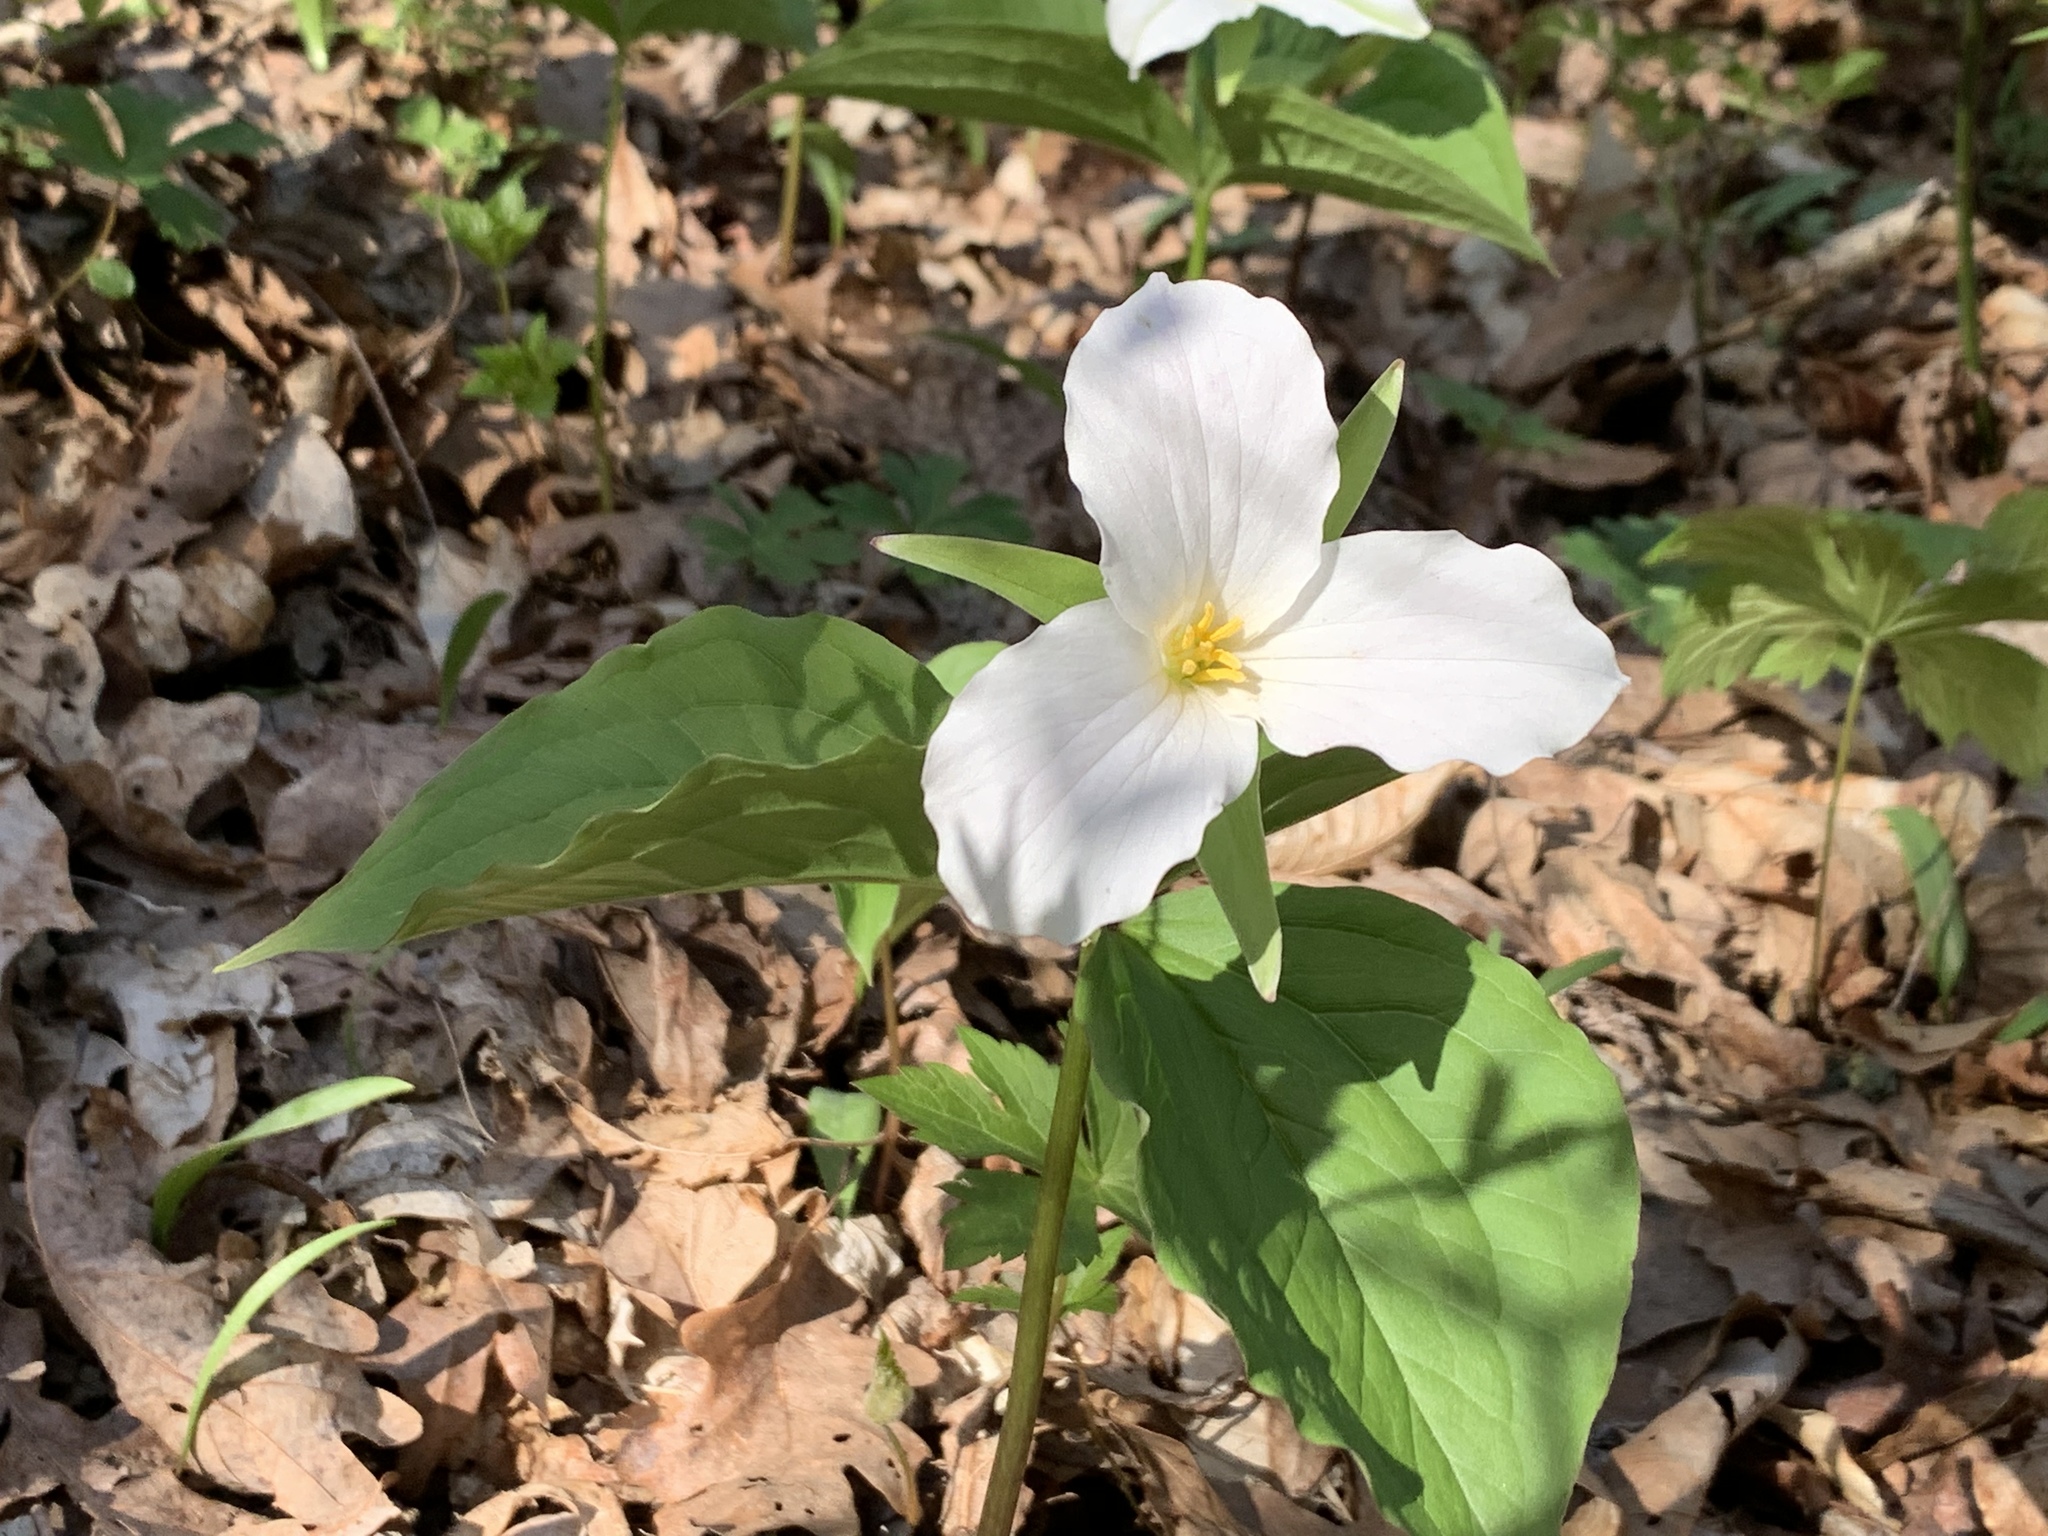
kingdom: Plantae
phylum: Tracheophyta
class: Liliopsida
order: Liliales
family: Melanthiaceae
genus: Trillium
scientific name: Trillium grandiflorum
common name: Great white trillium
